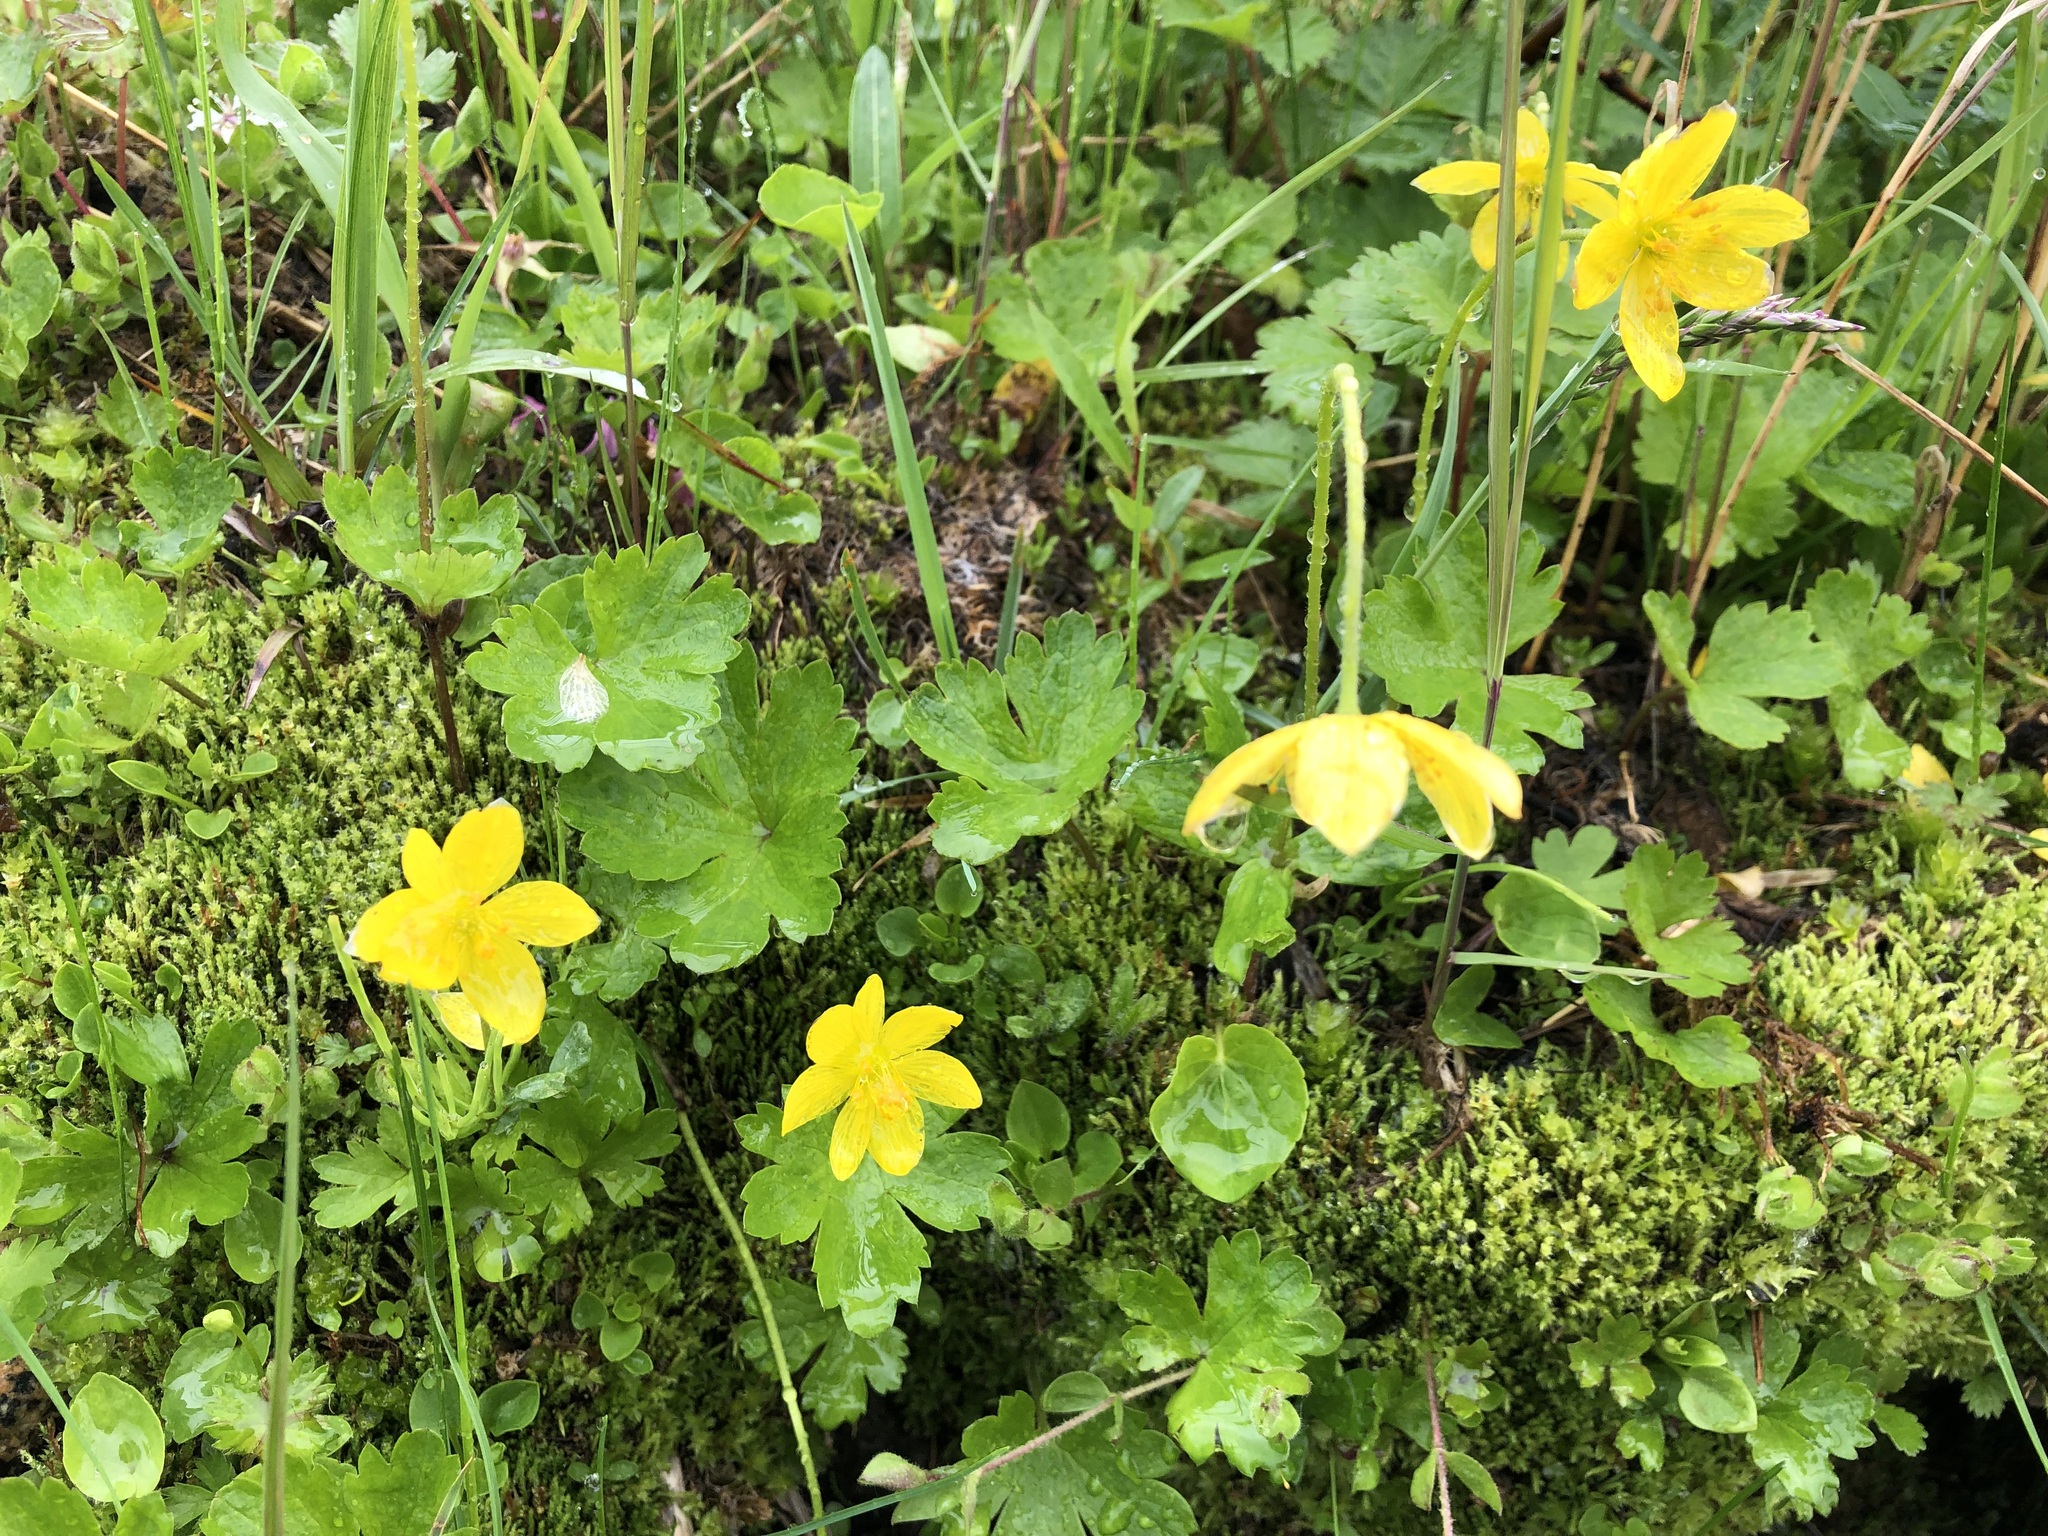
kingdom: Plantae
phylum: Tracheophyta
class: Magnoliopsida
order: Ranunculales
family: Ranunculaceae
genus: Anemonastrum
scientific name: Anemonastrum richardsonii
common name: Richardson's anemone
